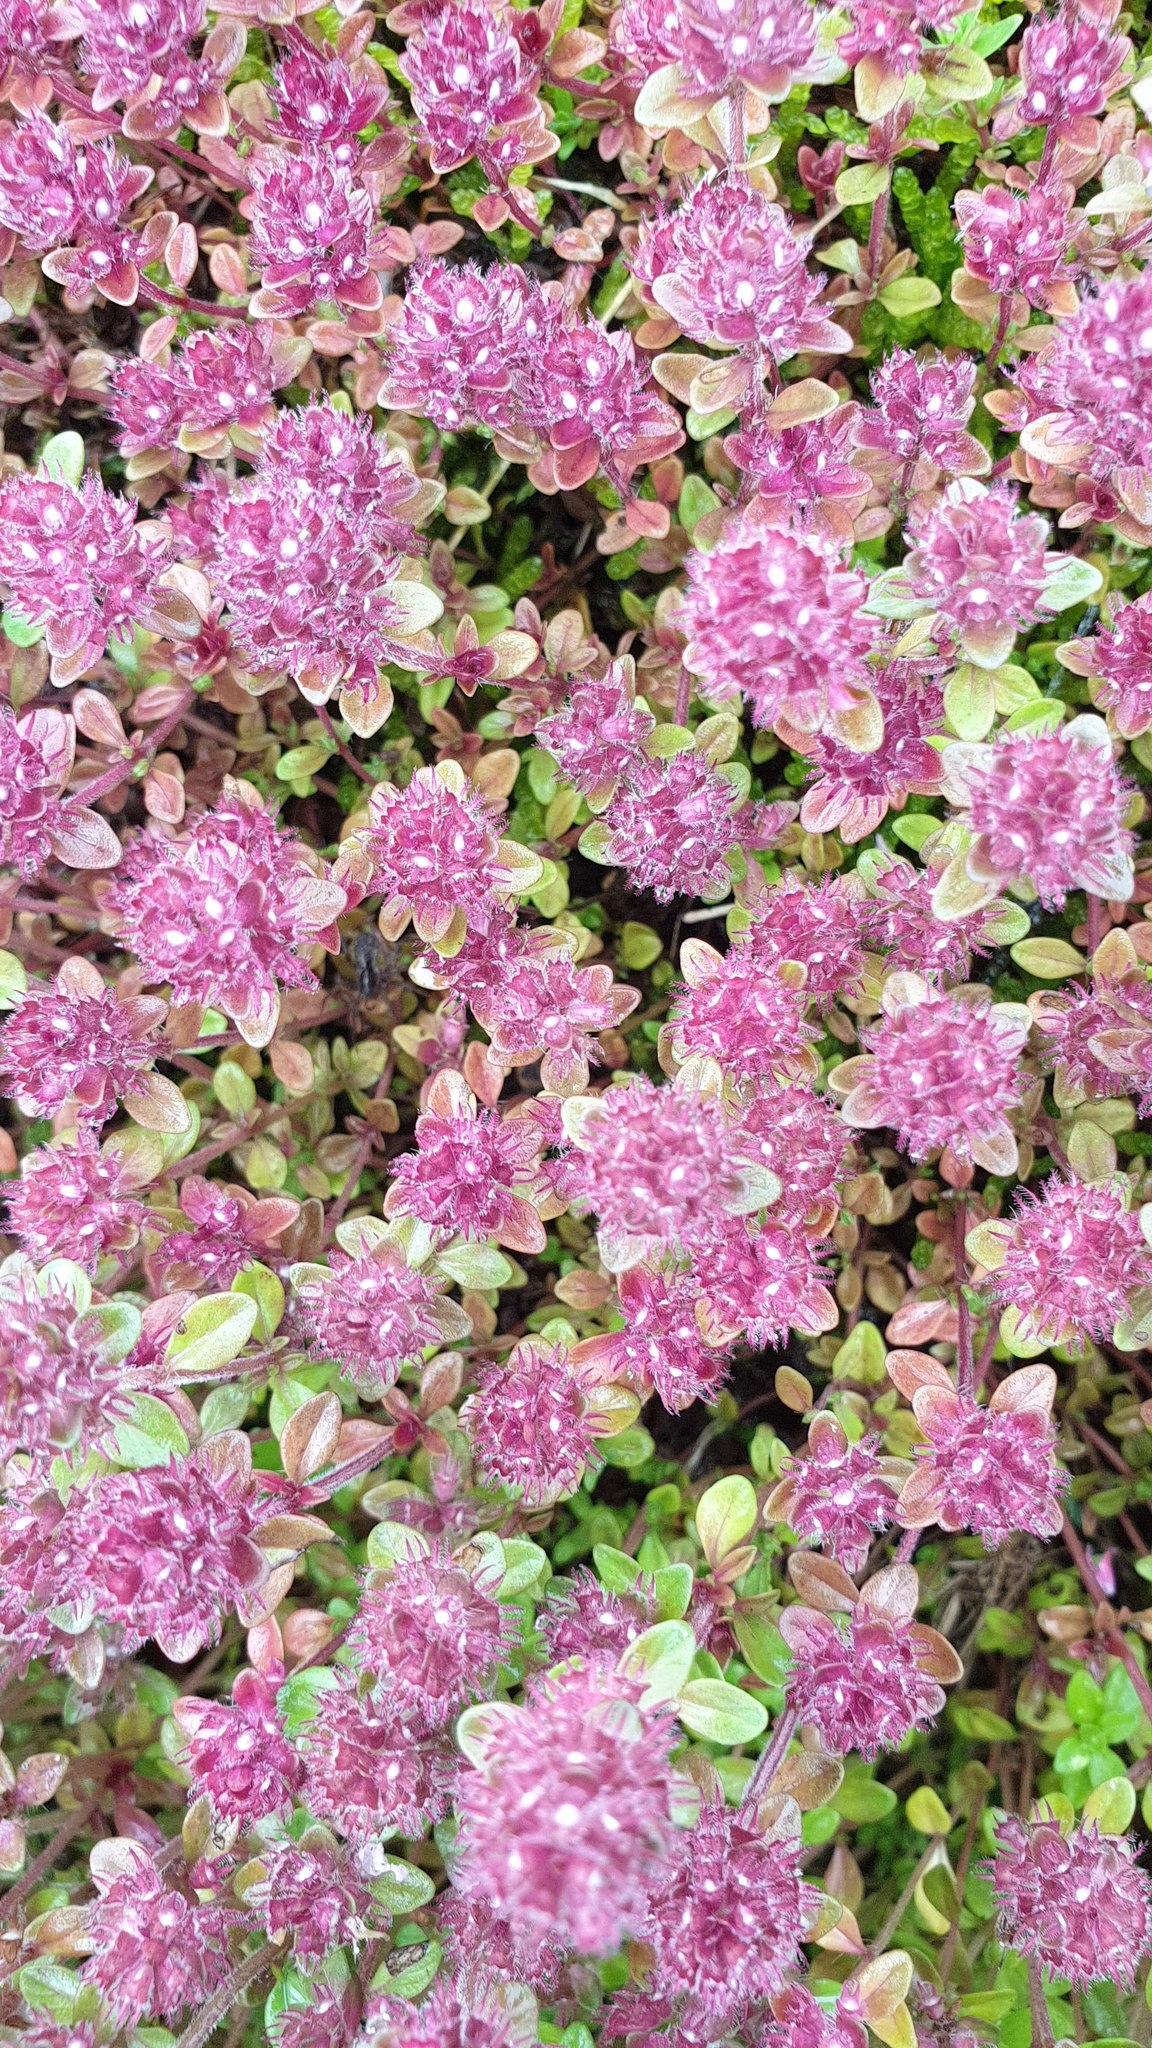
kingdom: Plantae
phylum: Tracheophyta
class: Magnoliopsida
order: Lamiales
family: Lamiaceae
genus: Thymus
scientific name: Thymus pulegioides
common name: Large thyme
